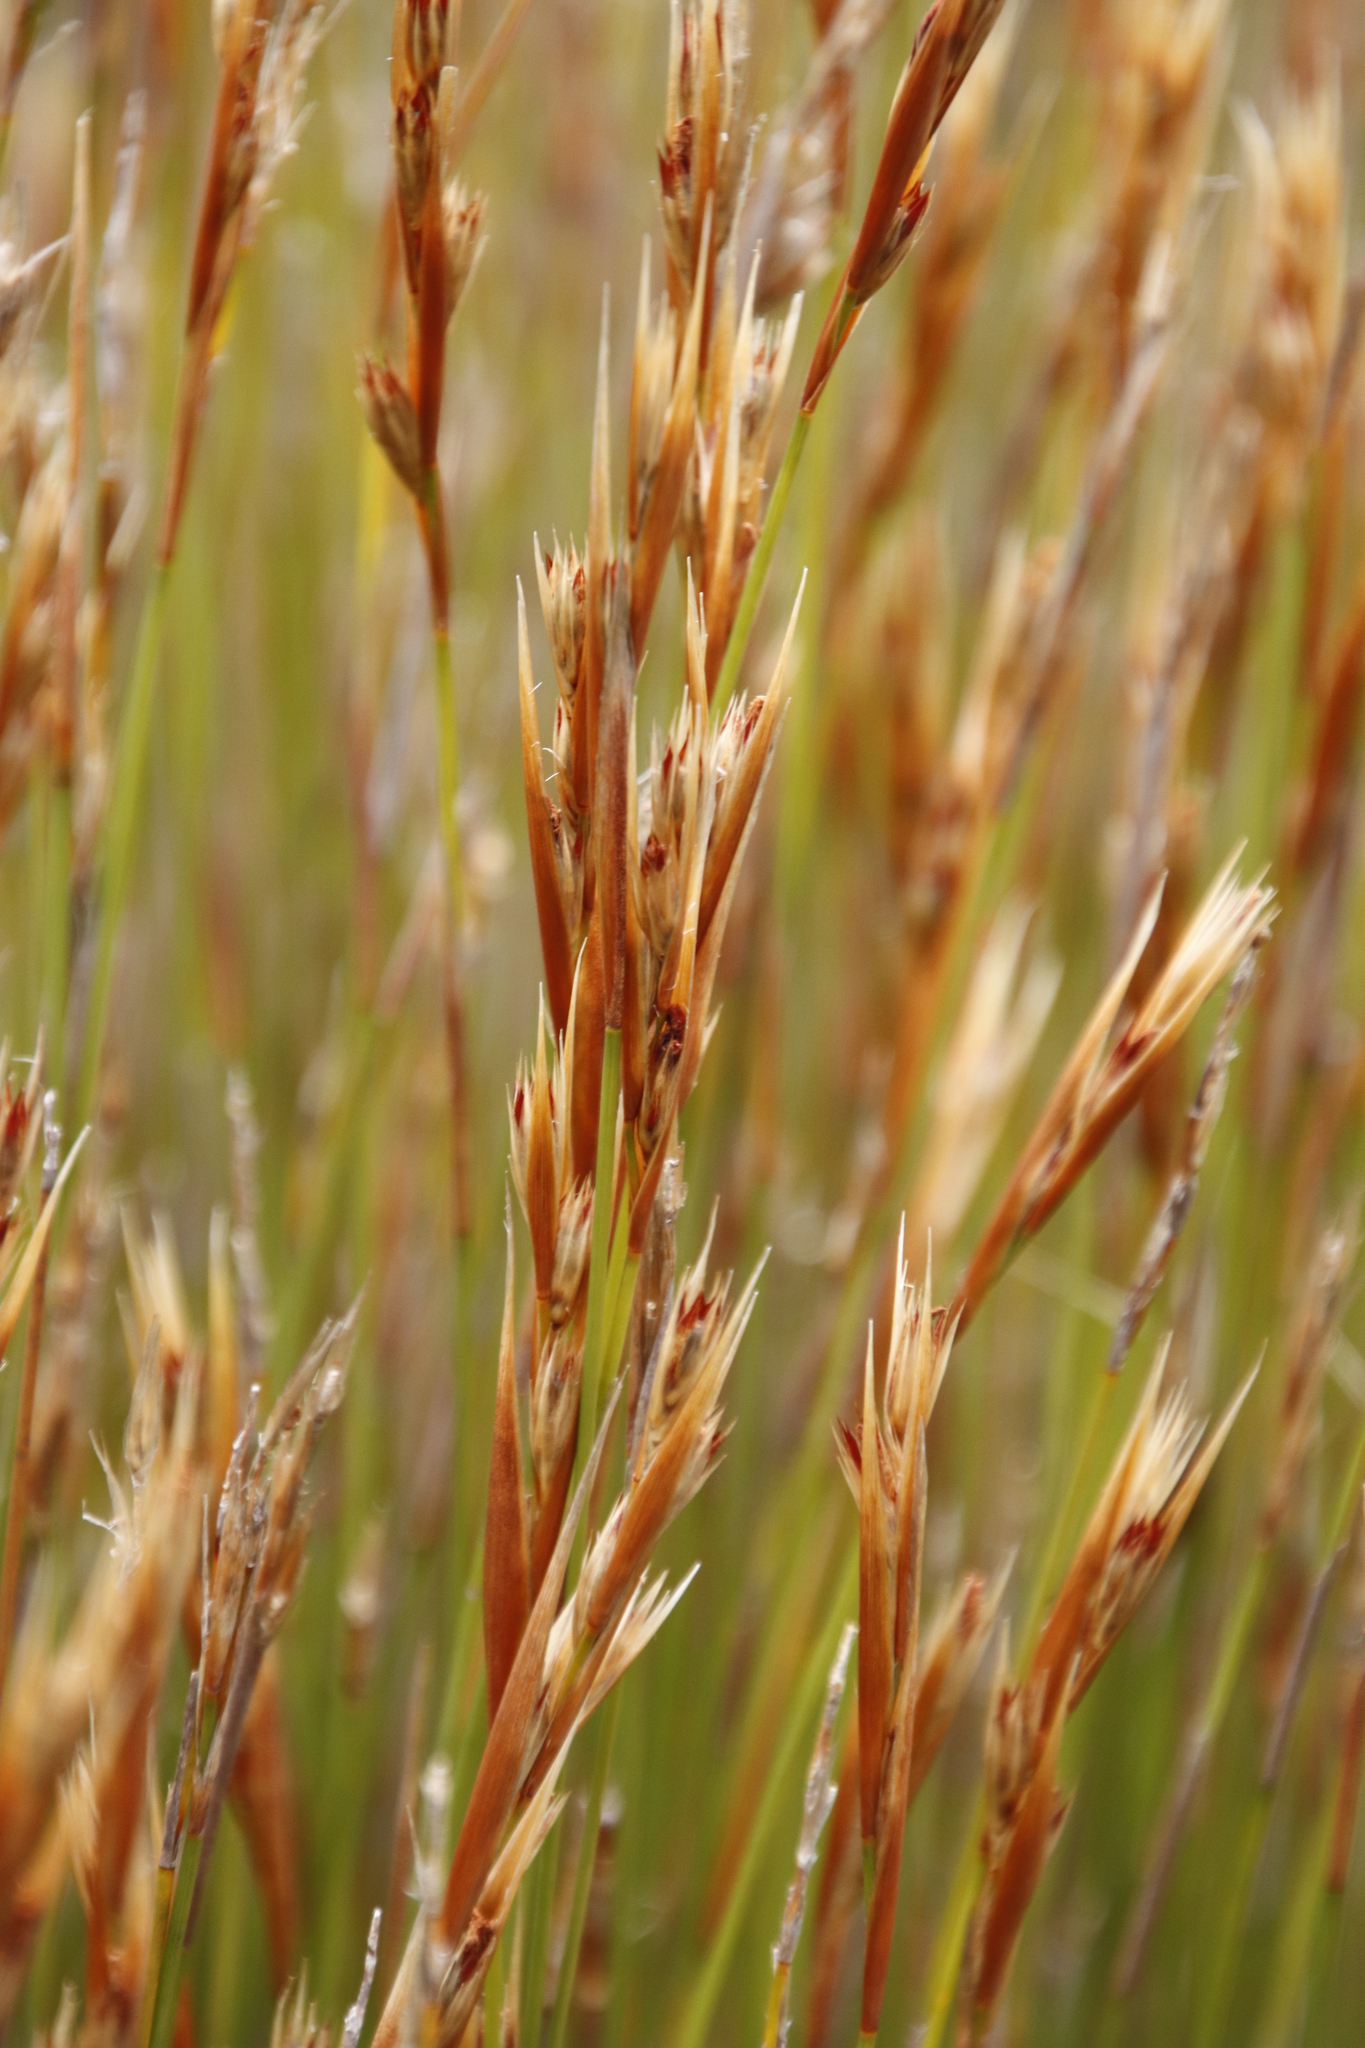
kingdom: Plantae
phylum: Tracheophyta
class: Liliopsida
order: Poales
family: Restionaceae
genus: Hypodiscus
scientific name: Hypodiscus argenteus
